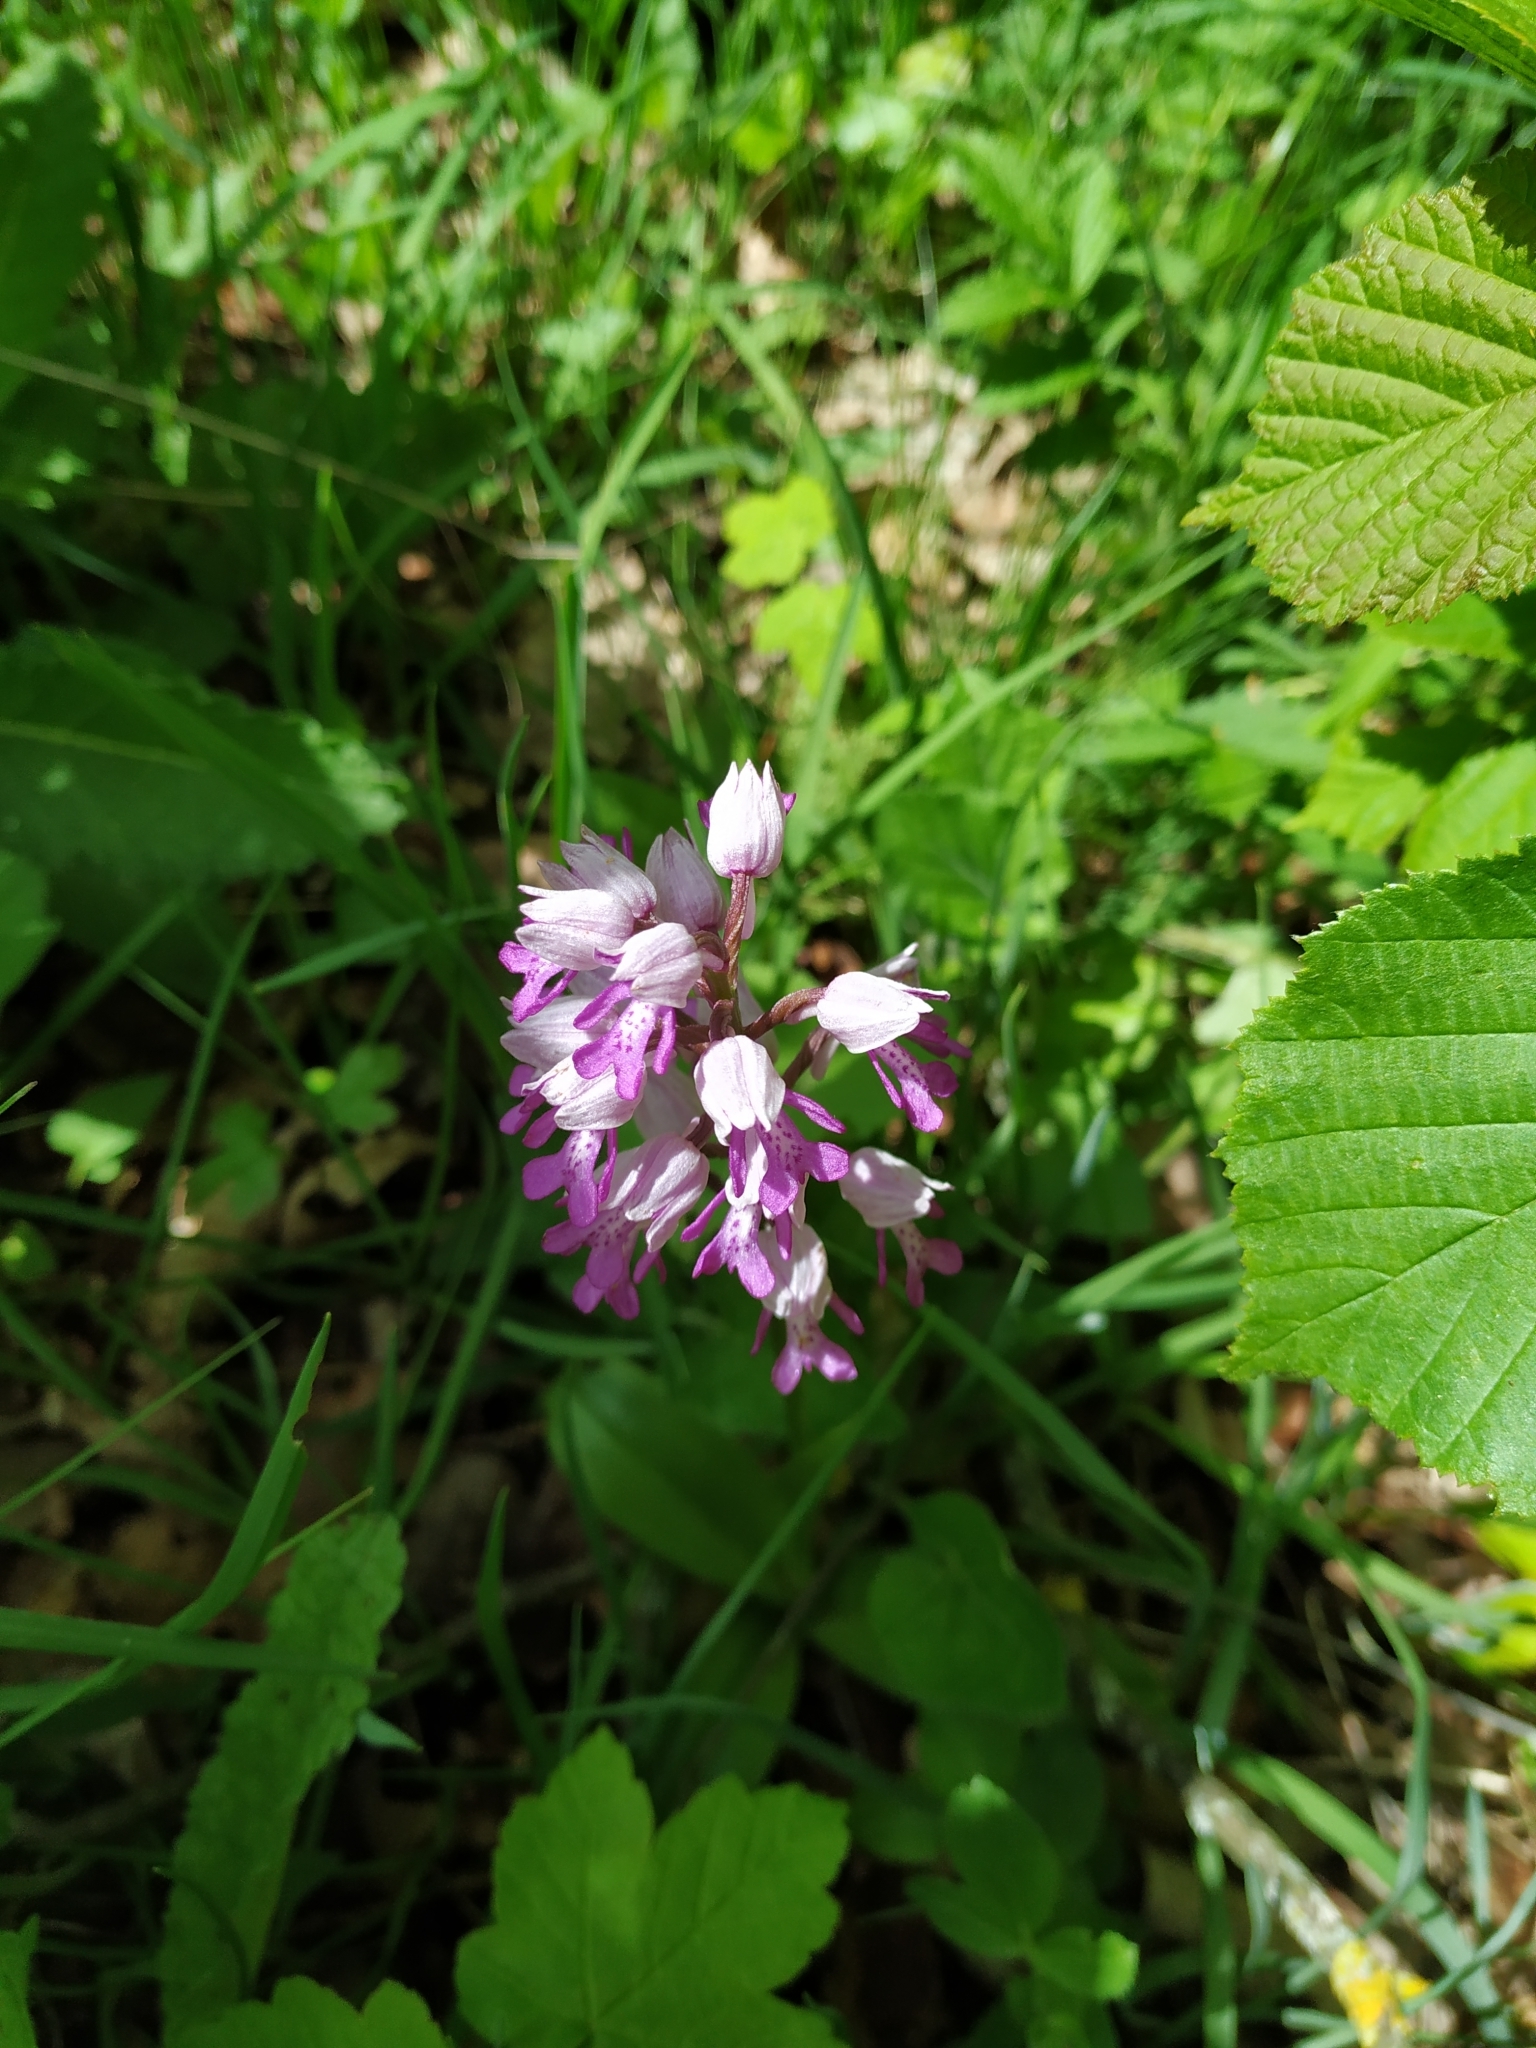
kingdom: Plantae
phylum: Tracheophyta
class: Liliopsida
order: Asparagales
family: Orchidaceae
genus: Orchis
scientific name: Orchis militaris
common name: Military orchid
